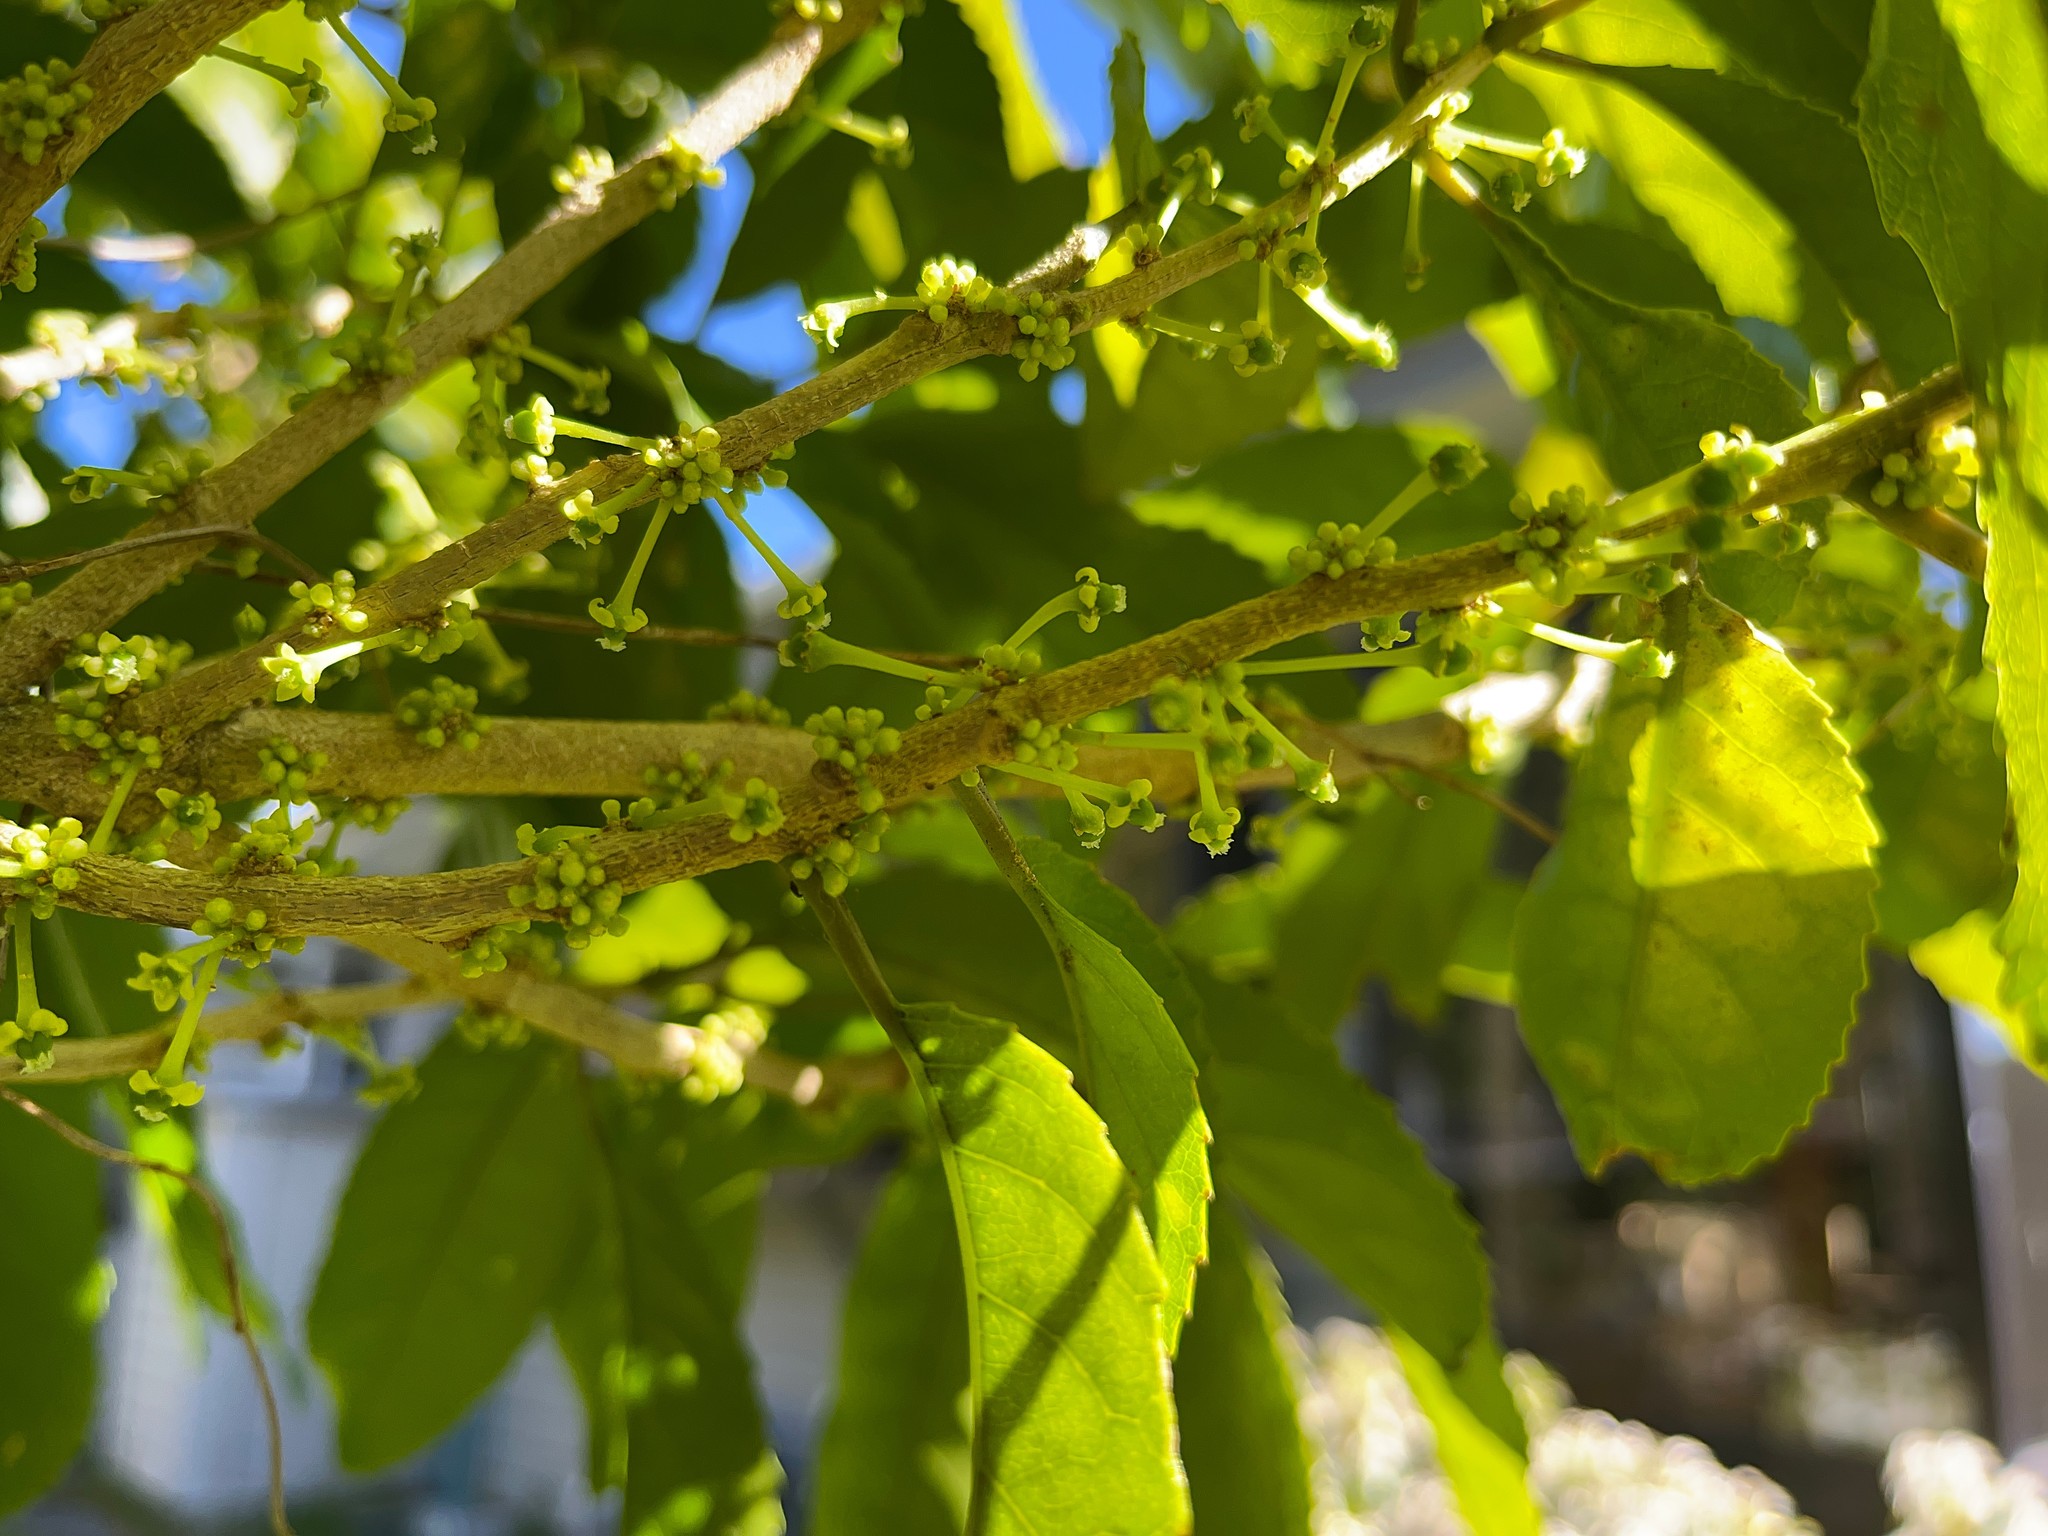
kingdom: Plantae
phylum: Tracheophyta
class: Magnoliopsida
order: Malpighiales
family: Violaceae
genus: Melicytus
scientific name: Melicytus ramiflorus
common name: Mahoe
